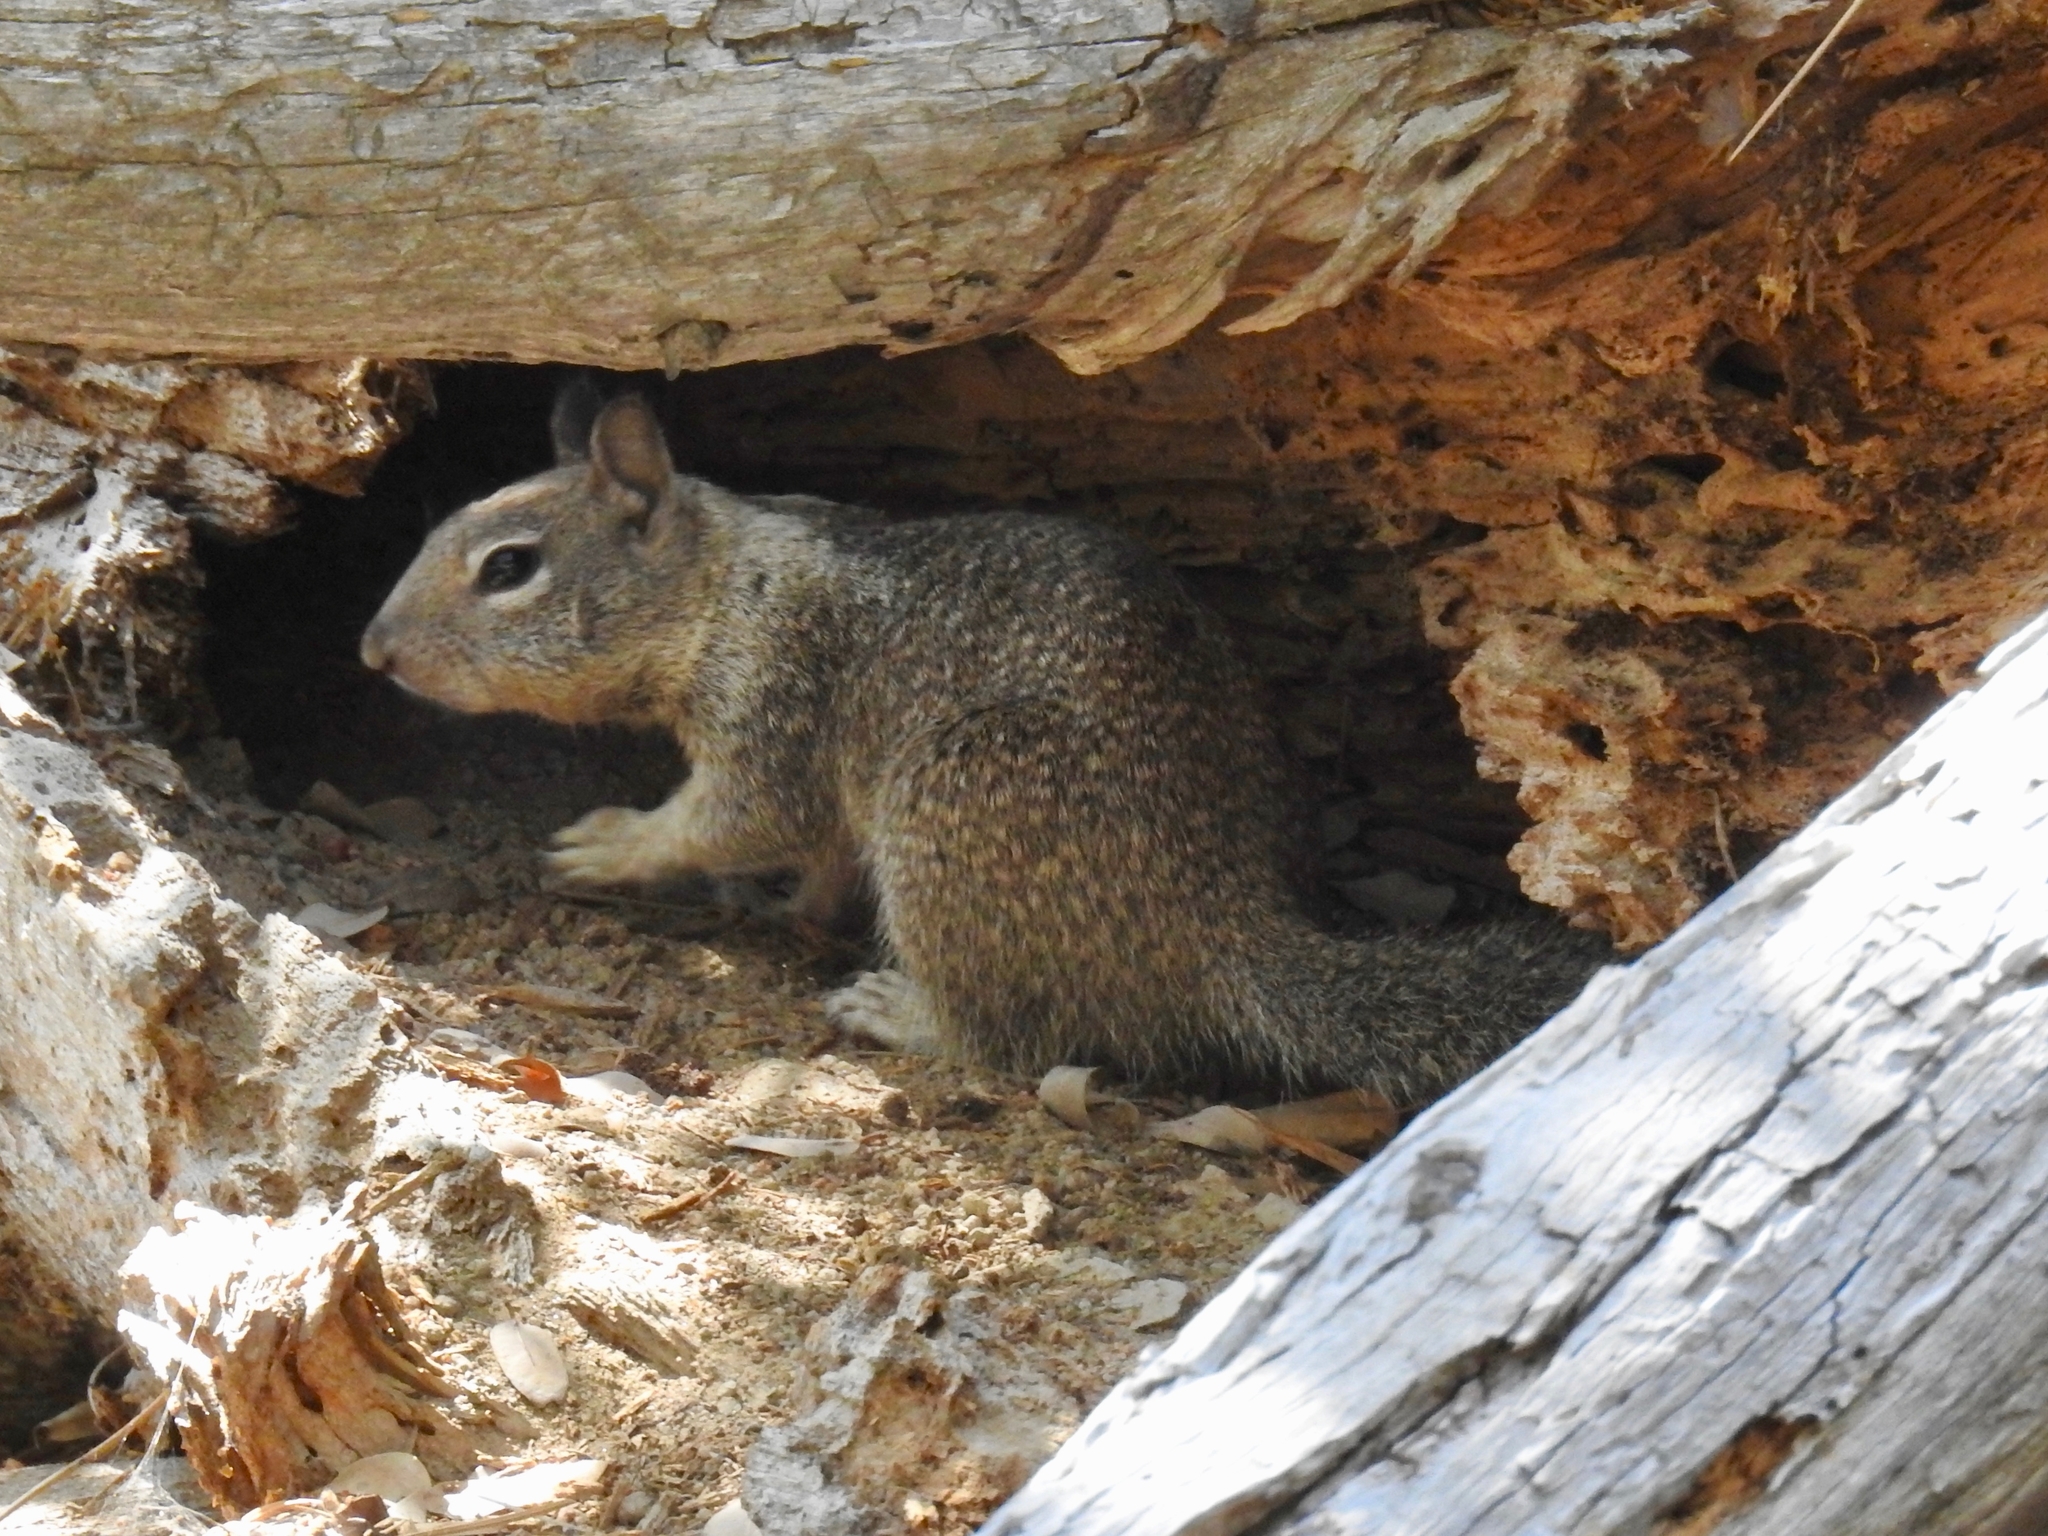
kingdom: Animalia
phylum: Chordata
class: Mammalia
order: Rodentia
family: Sciuridae
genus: Otospermophilus
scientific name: Otospermophilus beecheyi
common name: California ground squirrel
